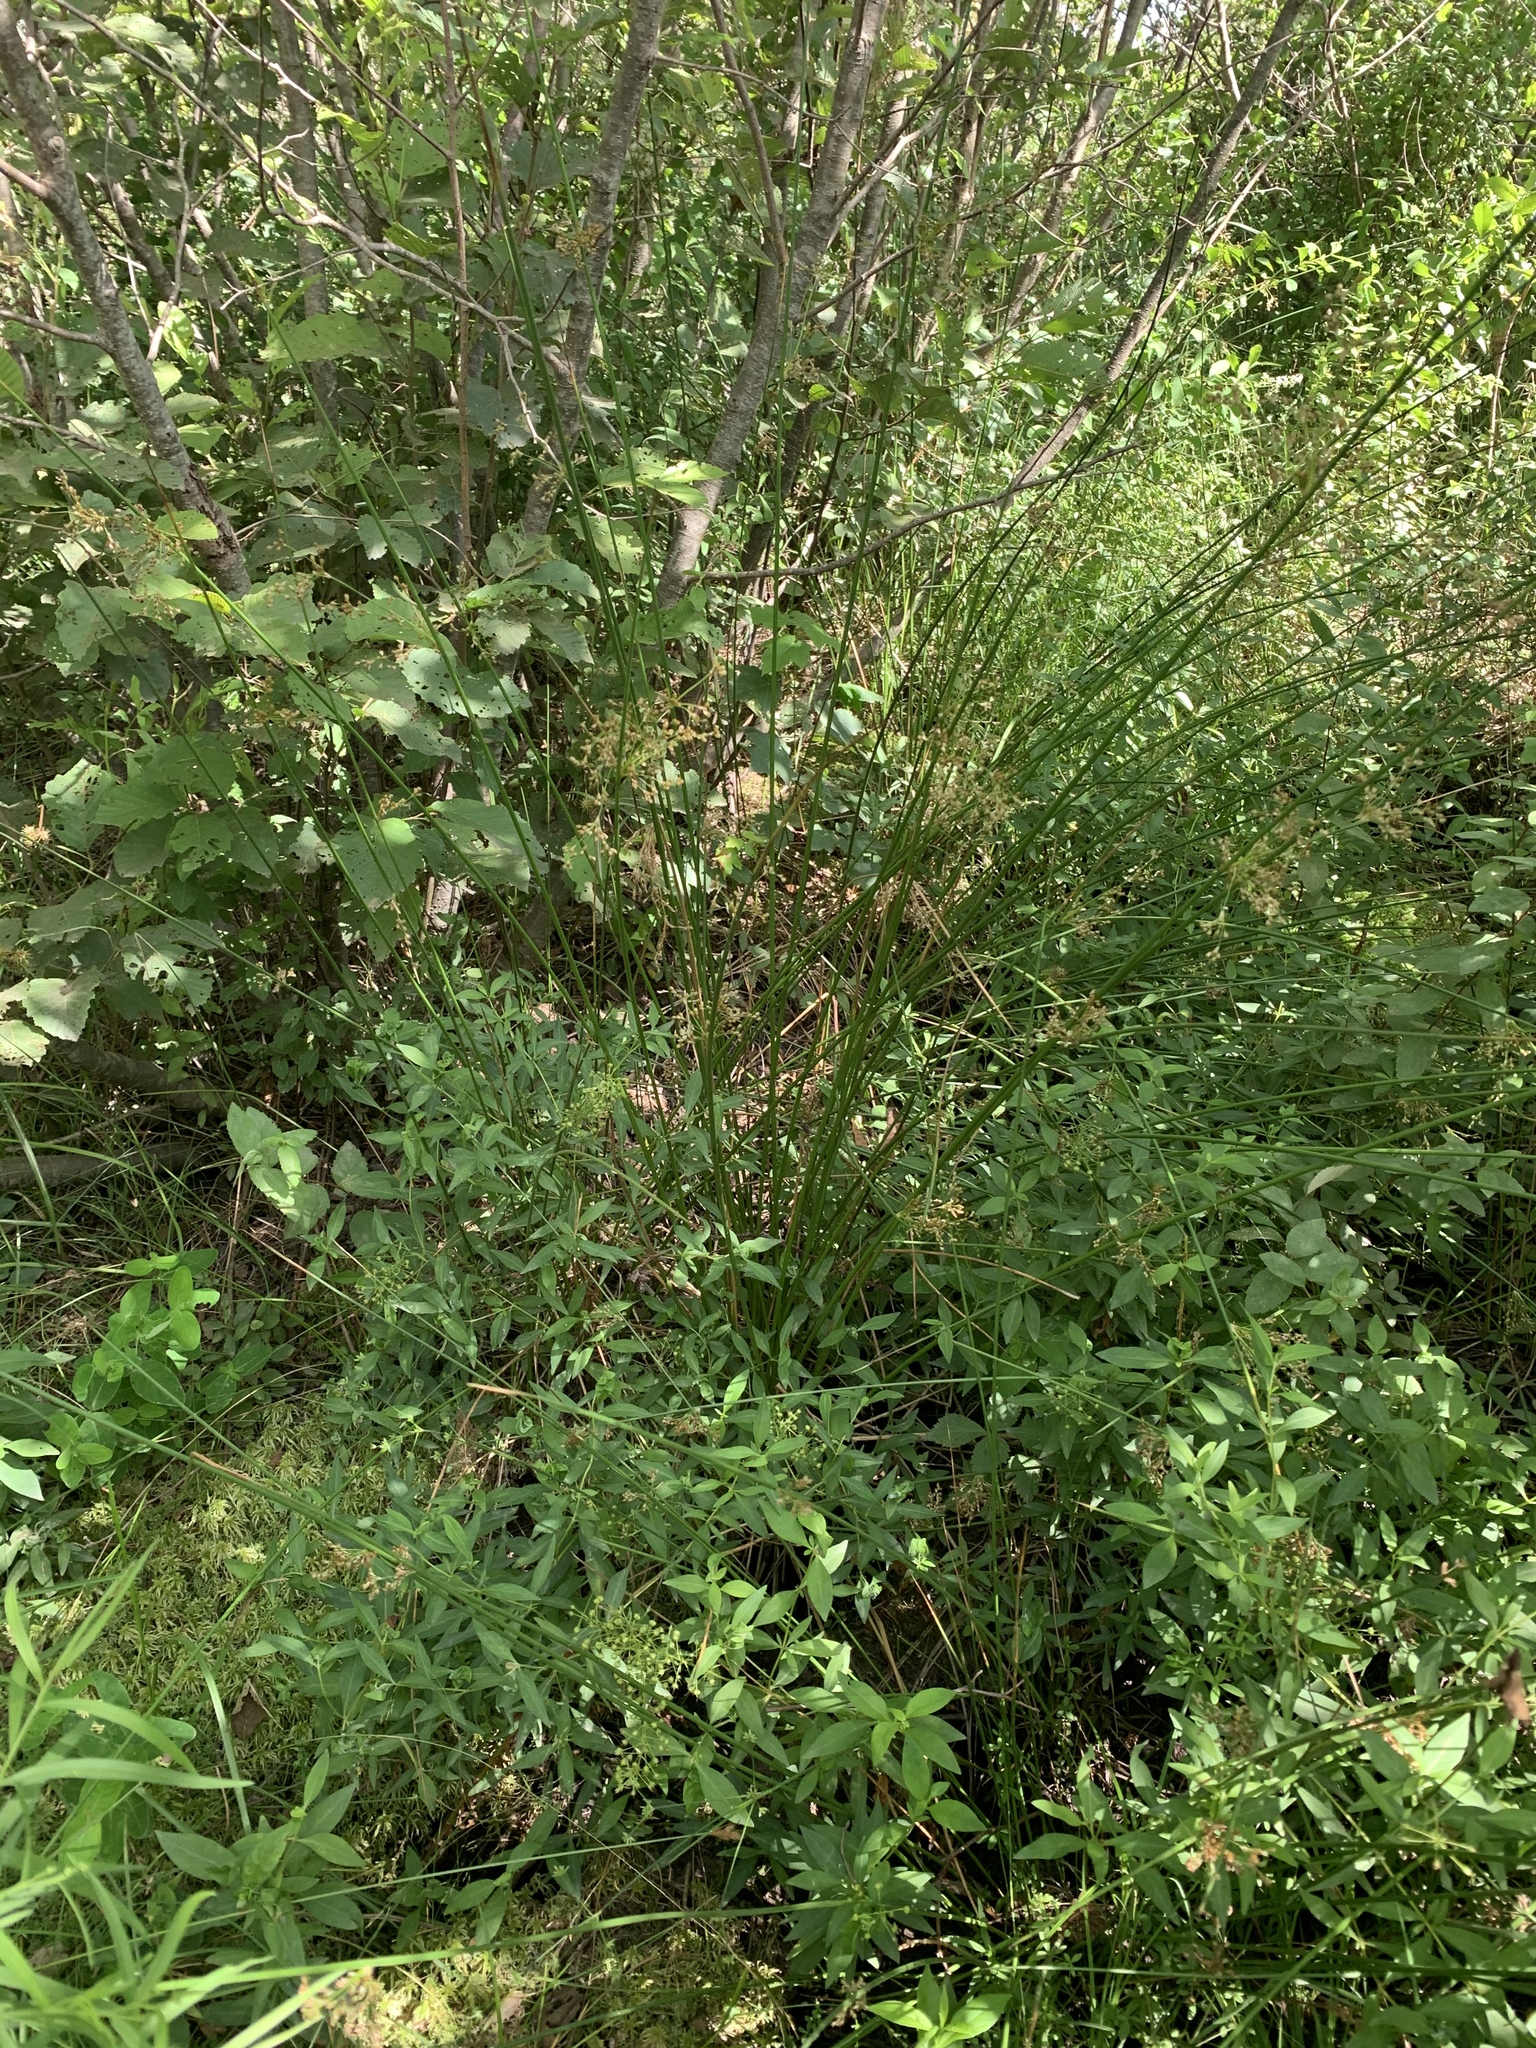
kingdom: Plantae
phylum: Tracheophyta
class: Liliopsida
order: Poales
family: Juncaceae
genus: Juncus
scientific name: Juncus effusus
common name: Soft rush
